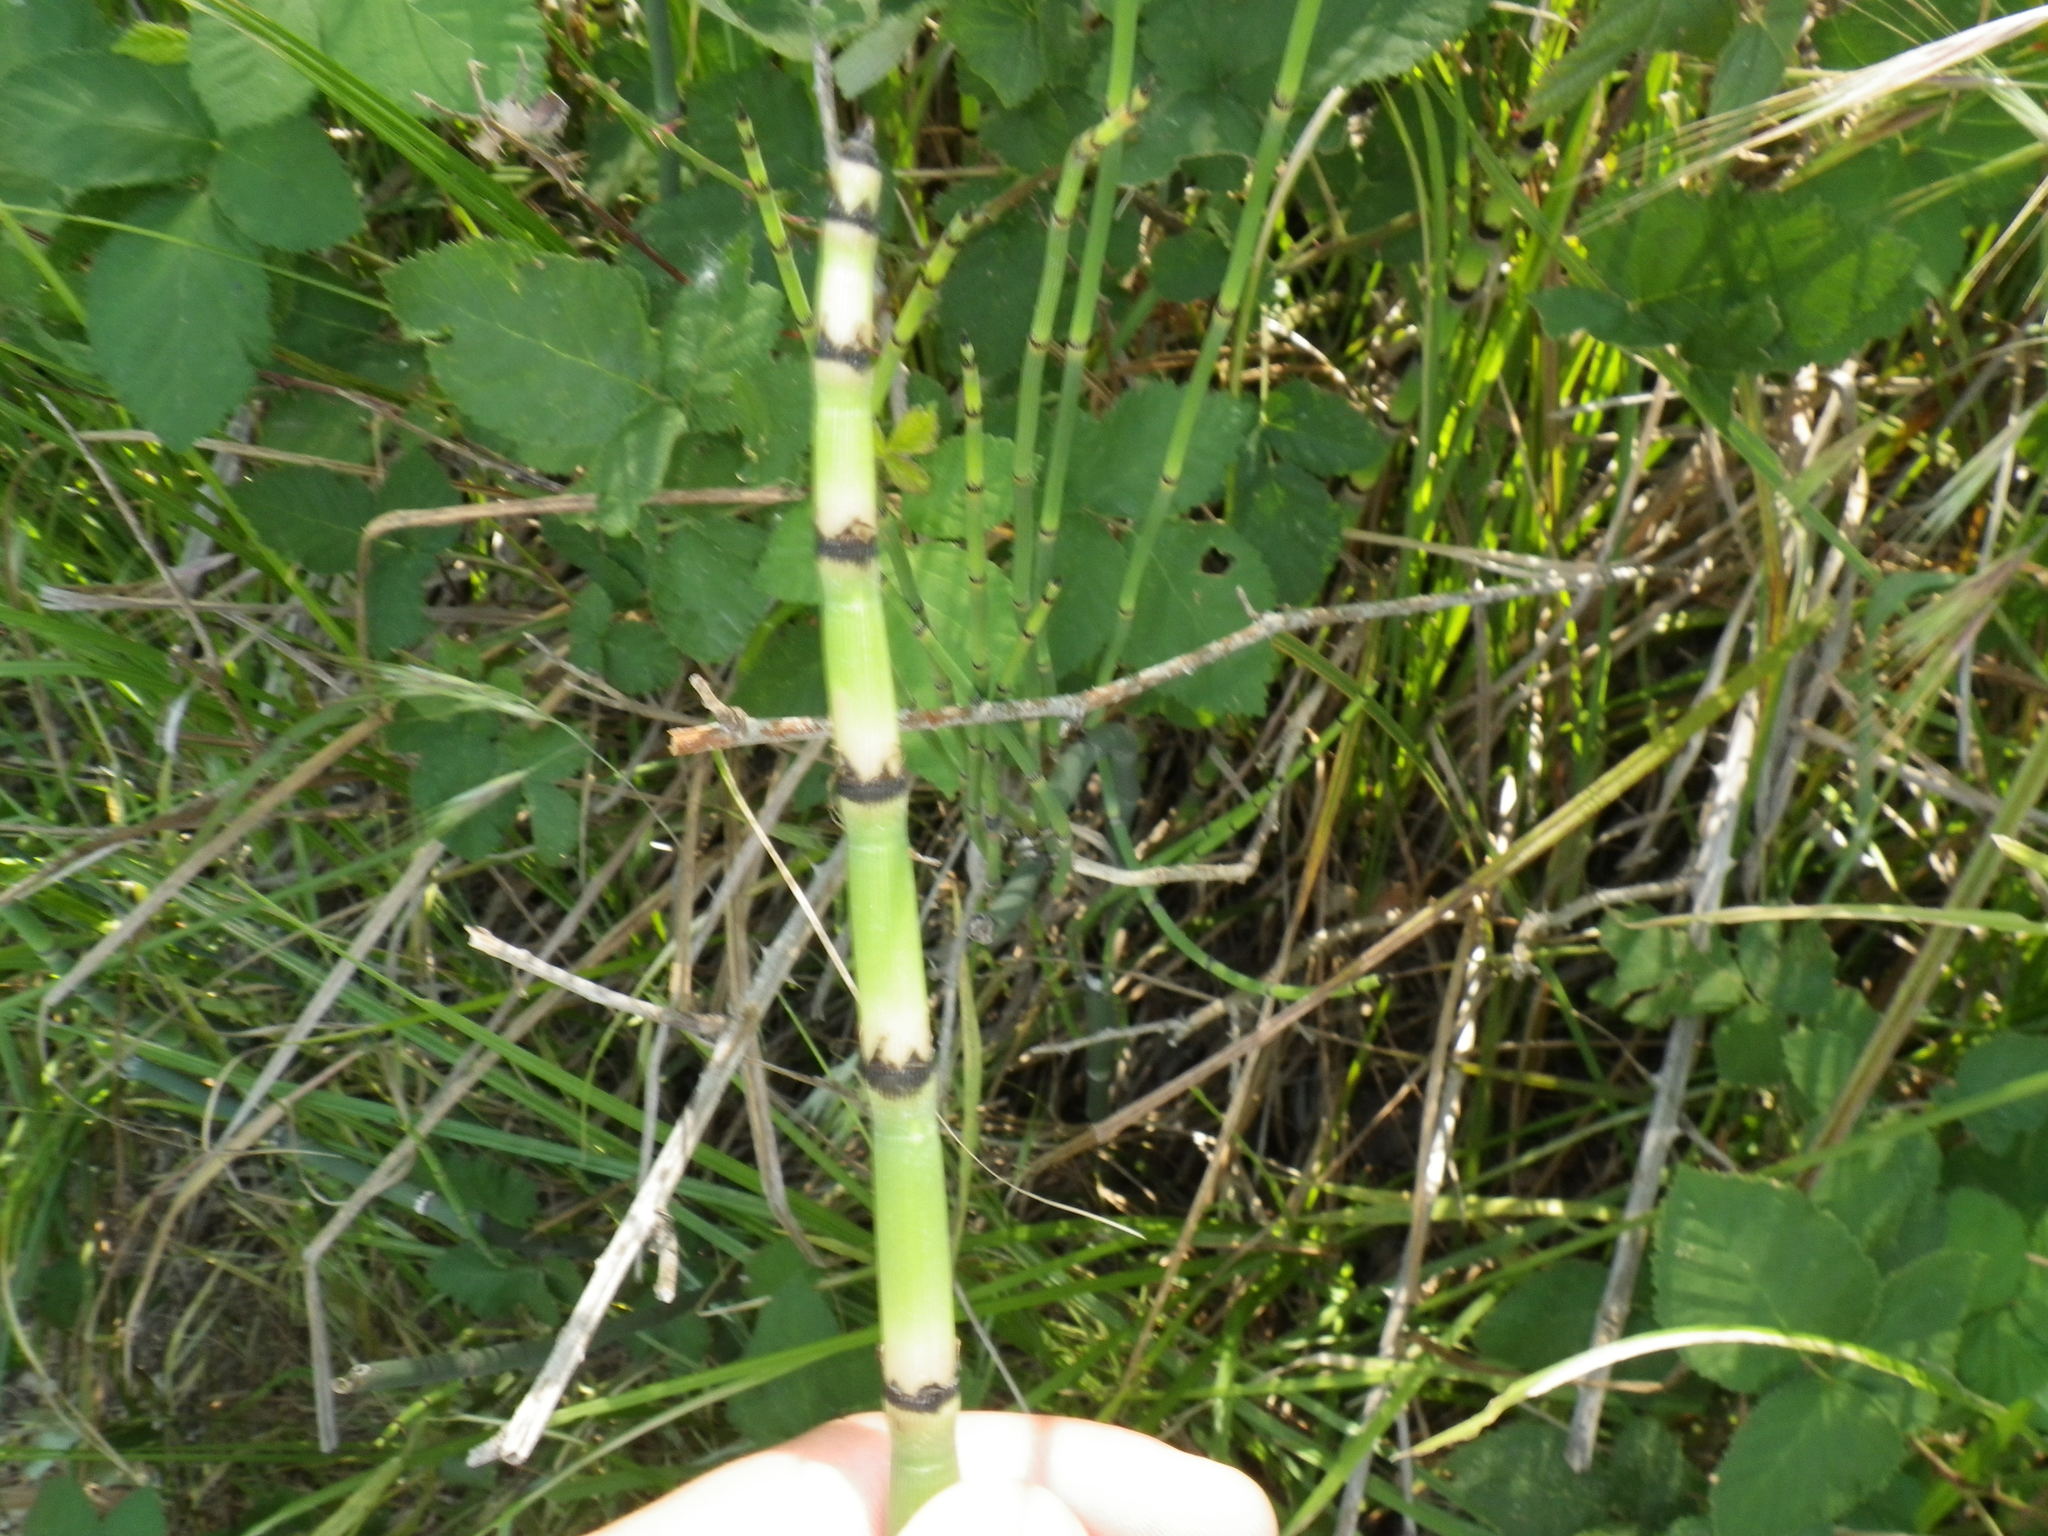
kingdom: Plantae
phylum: Tracheophyta
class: Polypodiopsida
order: Equisetales
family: Equisetaceae
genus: Equisetum
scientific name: Equisetum laevigatum
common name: Smooth scouring-rush
